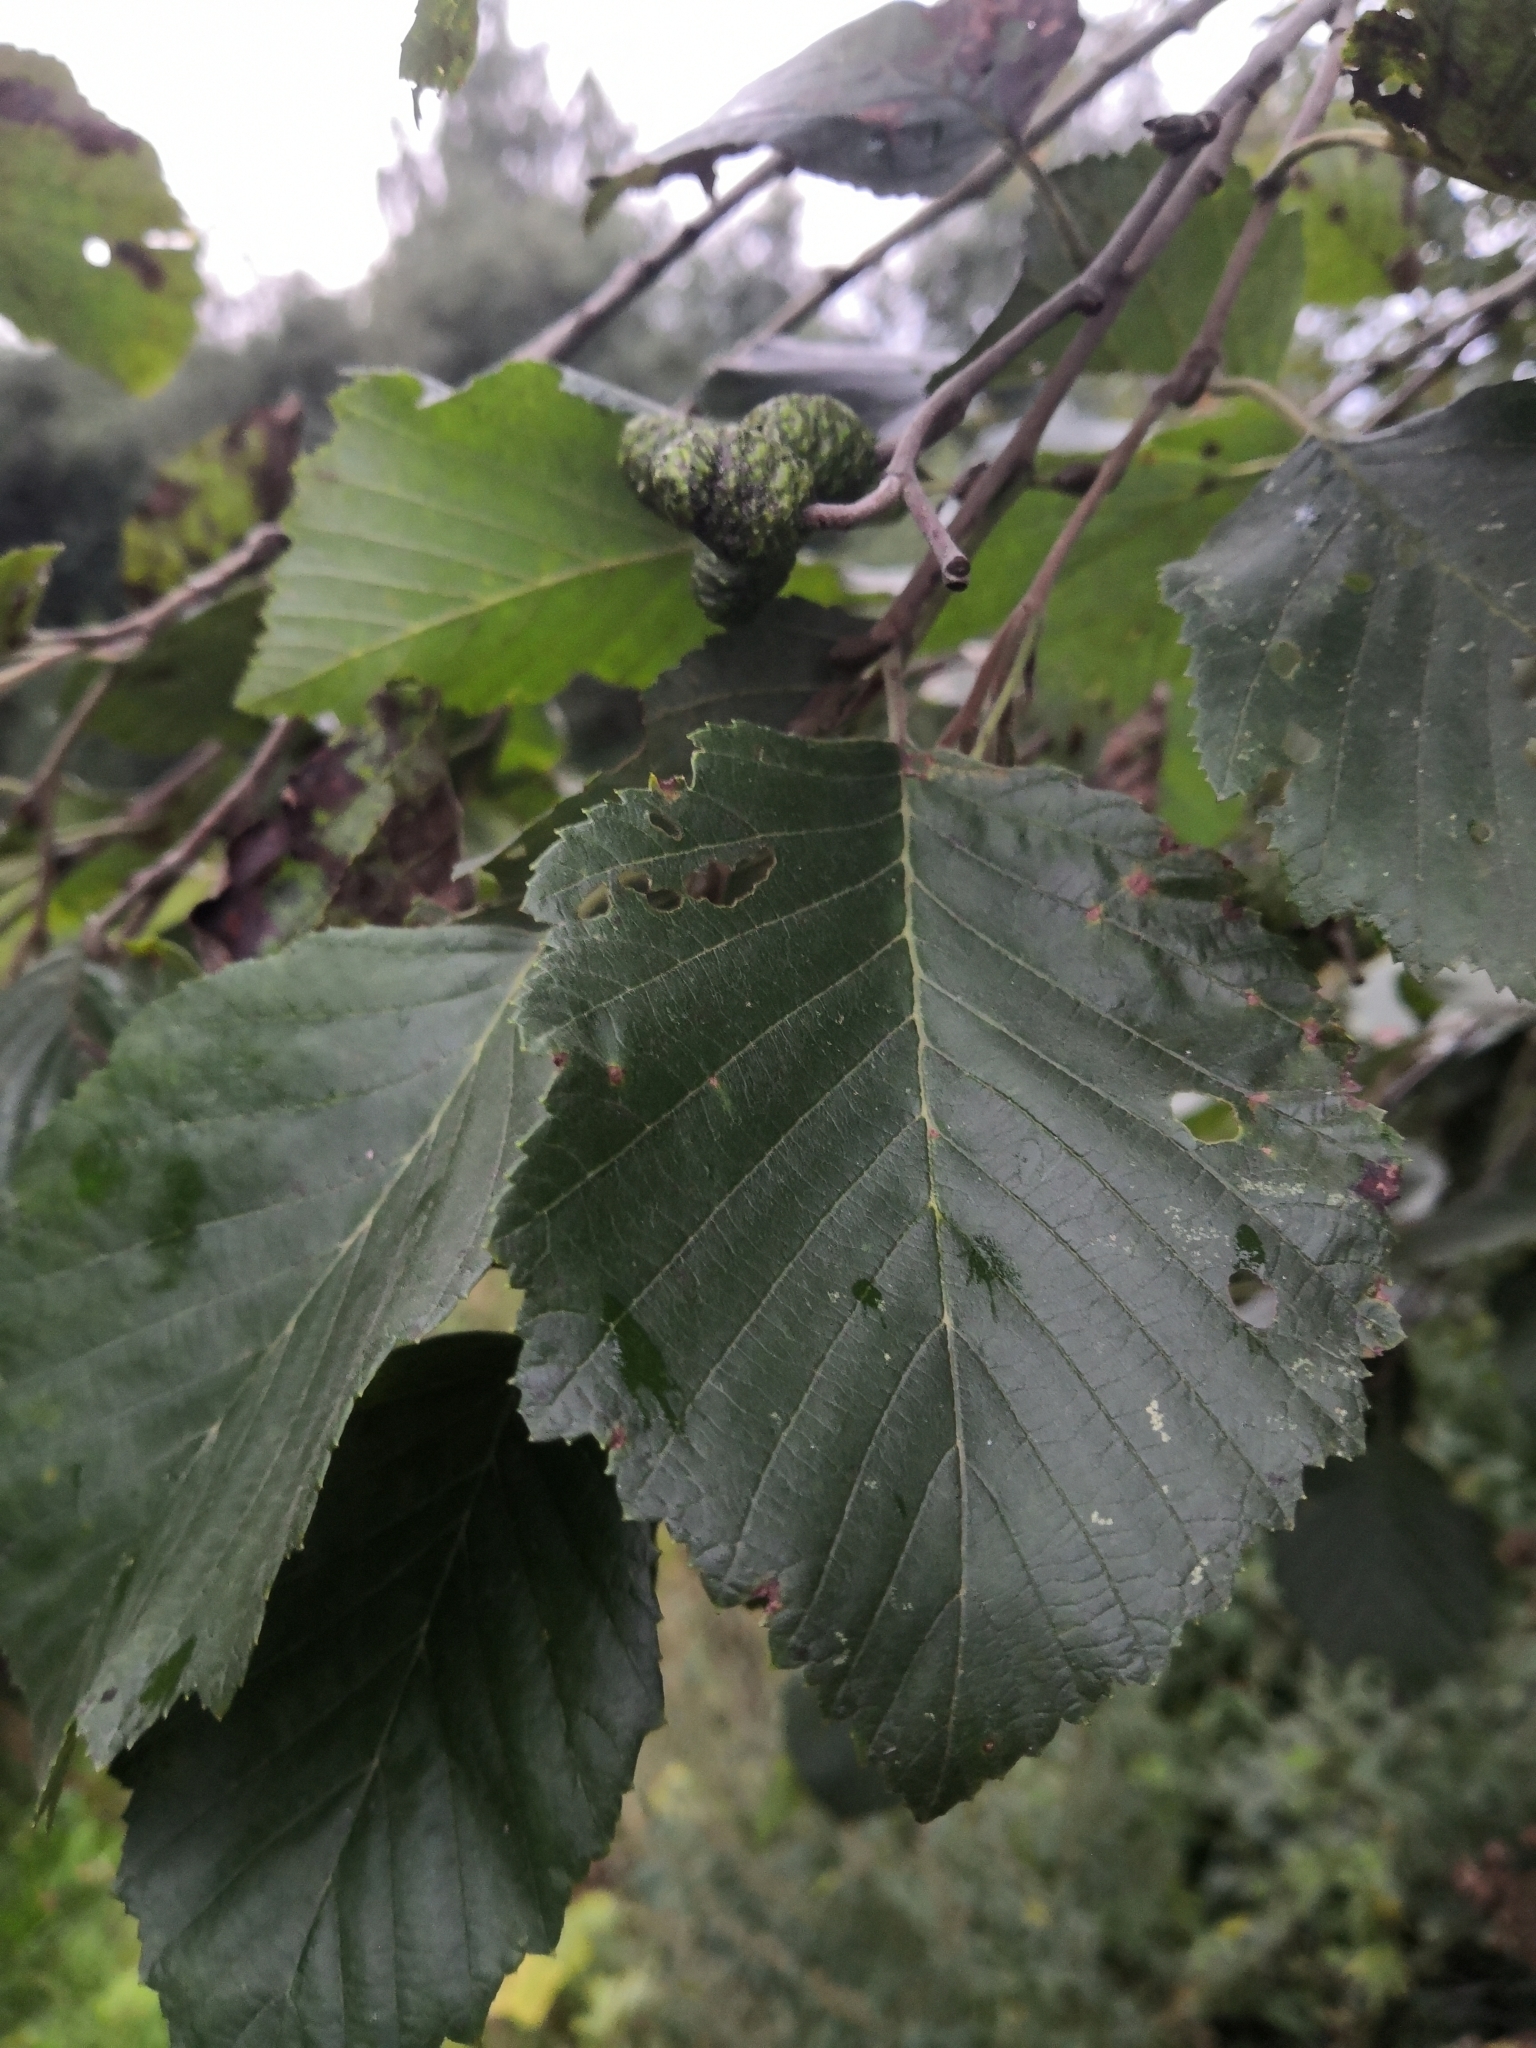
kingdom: Plantae
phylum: Tracheophyta
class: Magnoliopsida
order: Fagales
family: Betulaceae
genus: Alnus
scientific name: Alnus incana
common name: Grey alder
